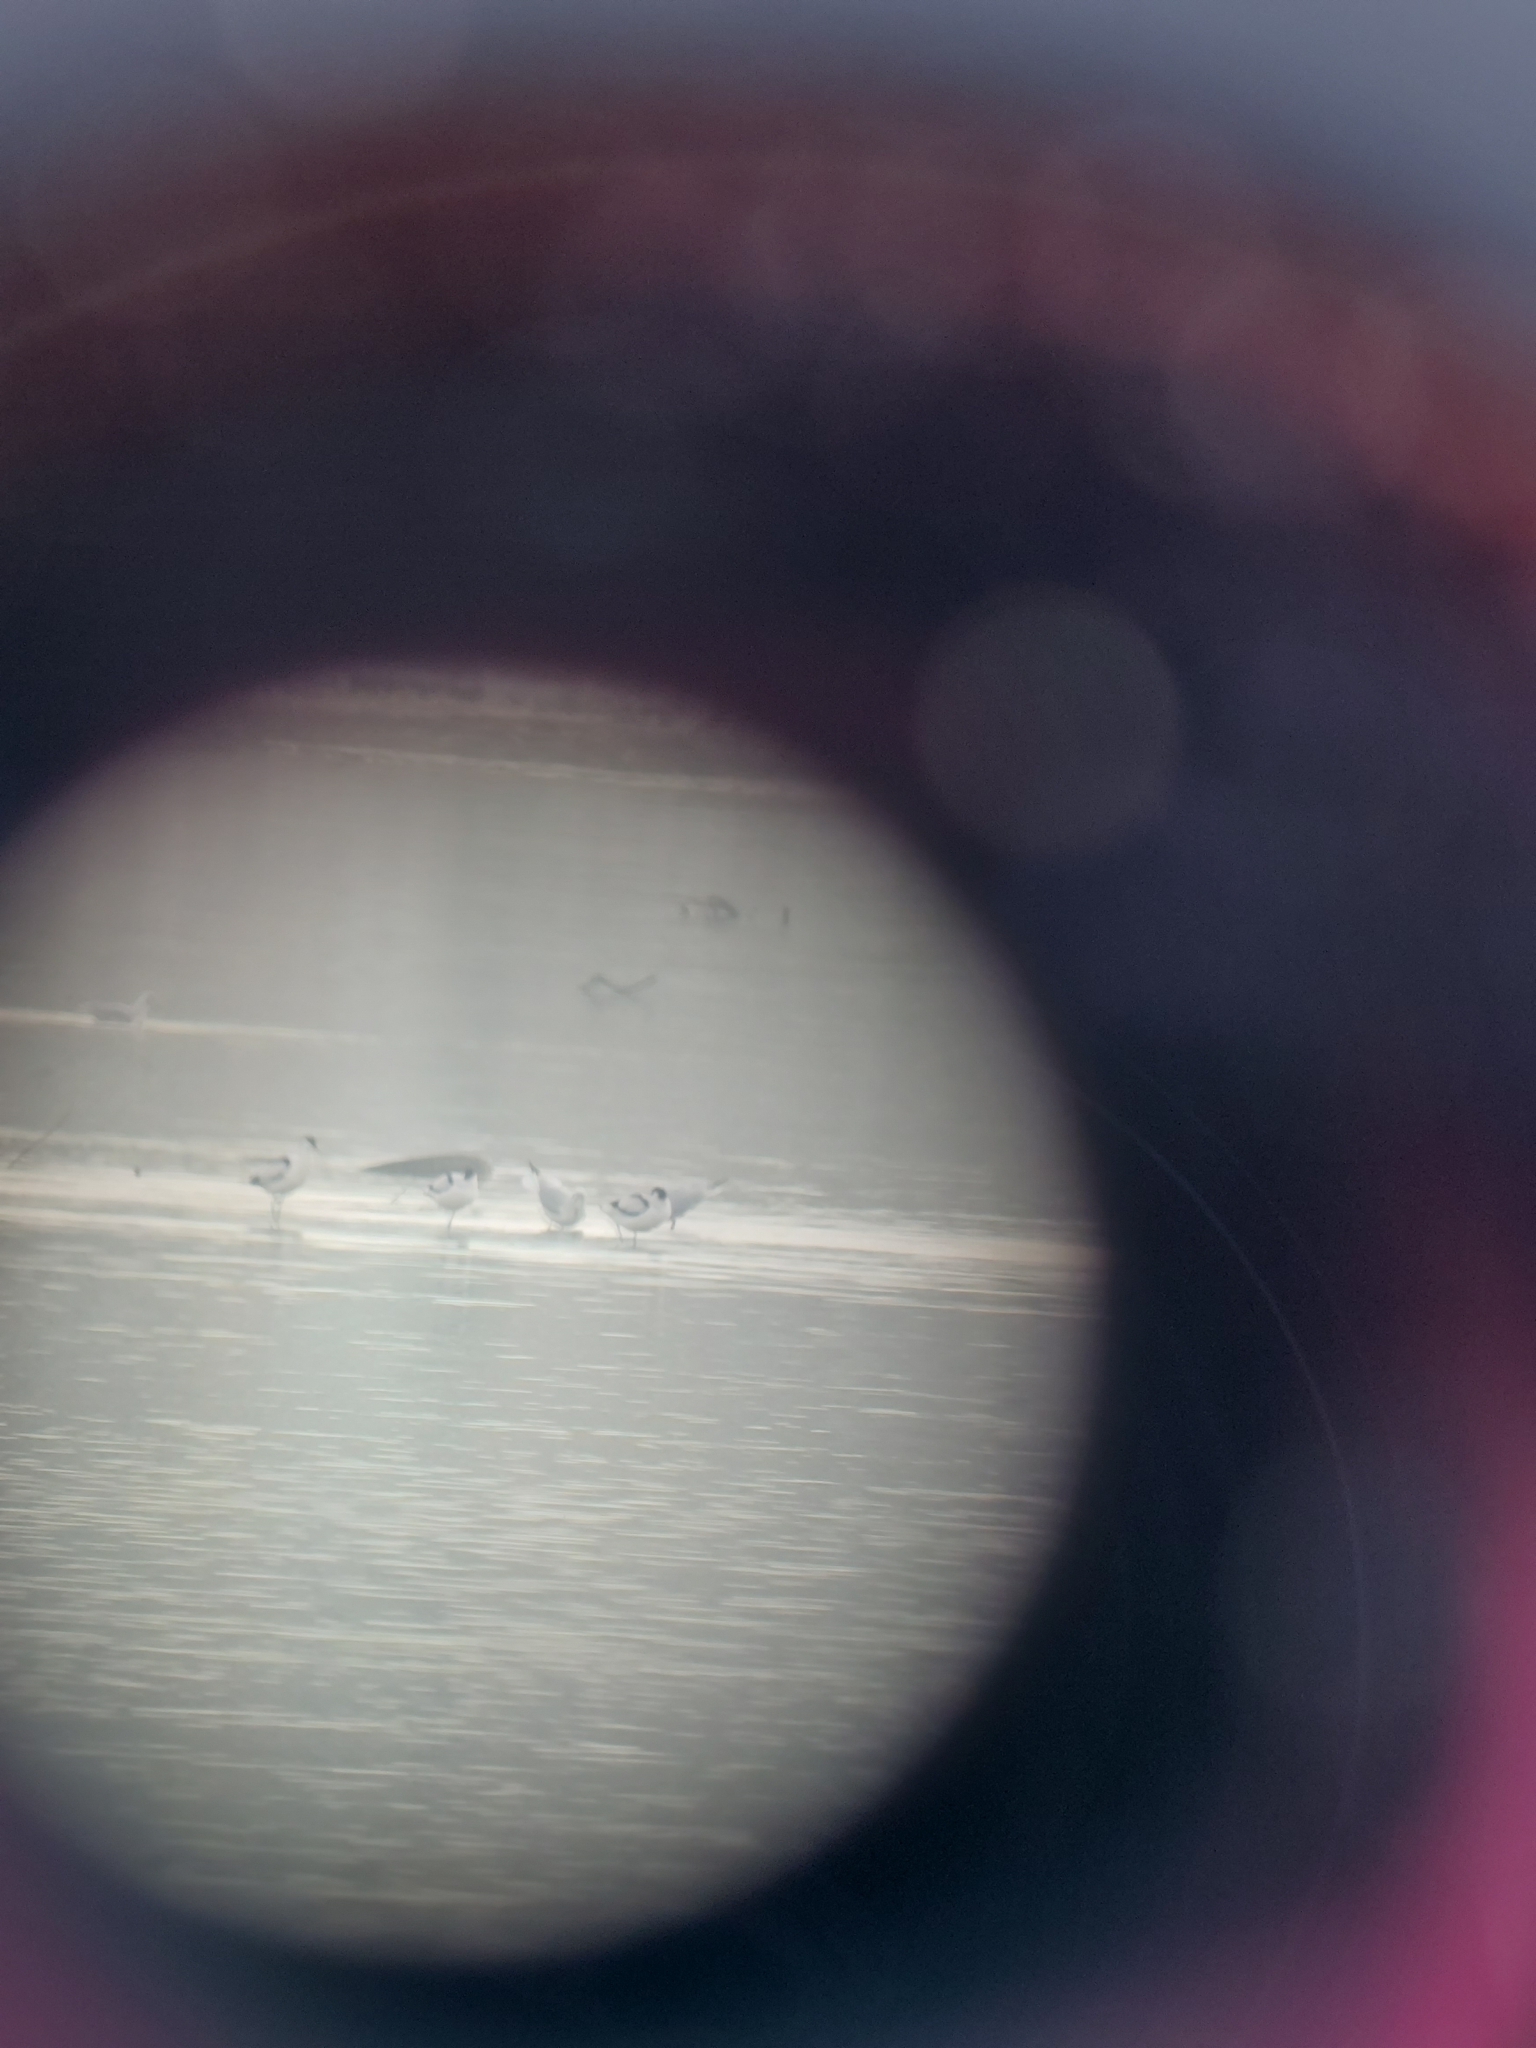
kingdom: Animalia
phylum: Chordata
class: Aves
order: Charadriiformes
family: Recurvirostridae
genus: Recurvirostra
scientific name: Recurvirostra avosetta
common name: Pied avocet
